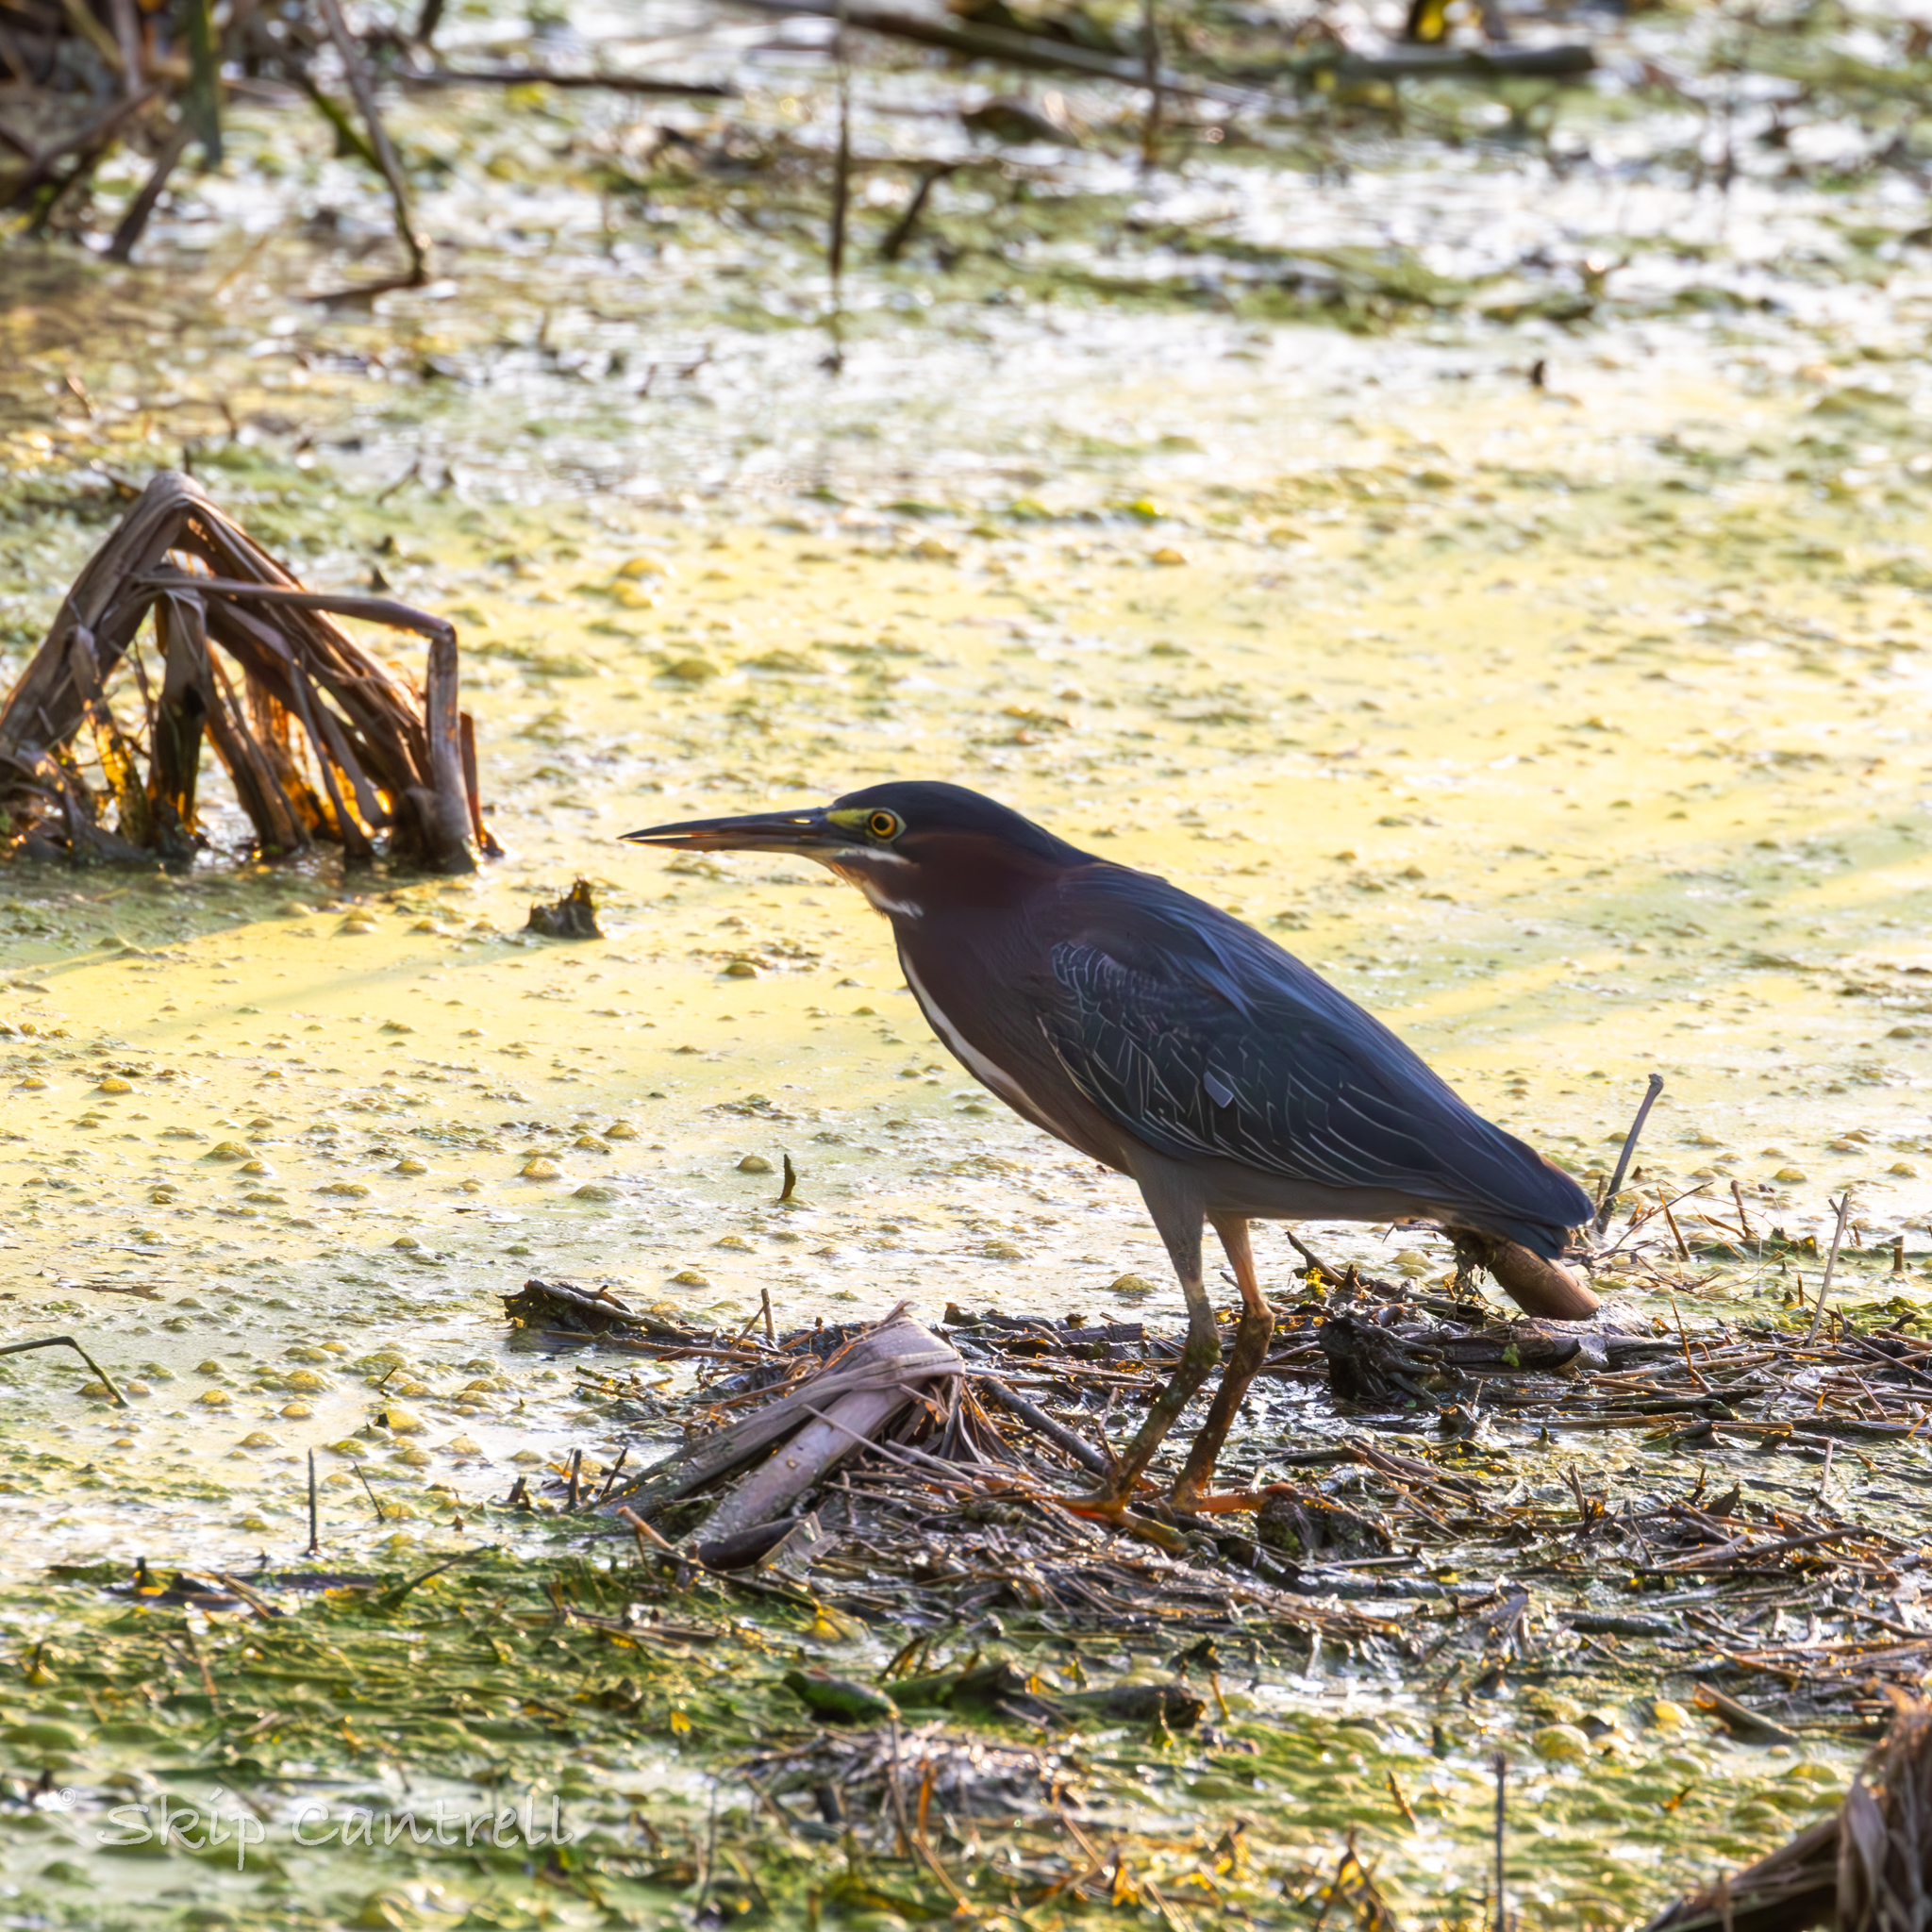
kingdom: Animalia
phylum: Chordata
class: Aves
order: Pelecaniformes
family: Ardeidae
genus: Butorides
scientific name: Butorides virescens
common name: Green heron
